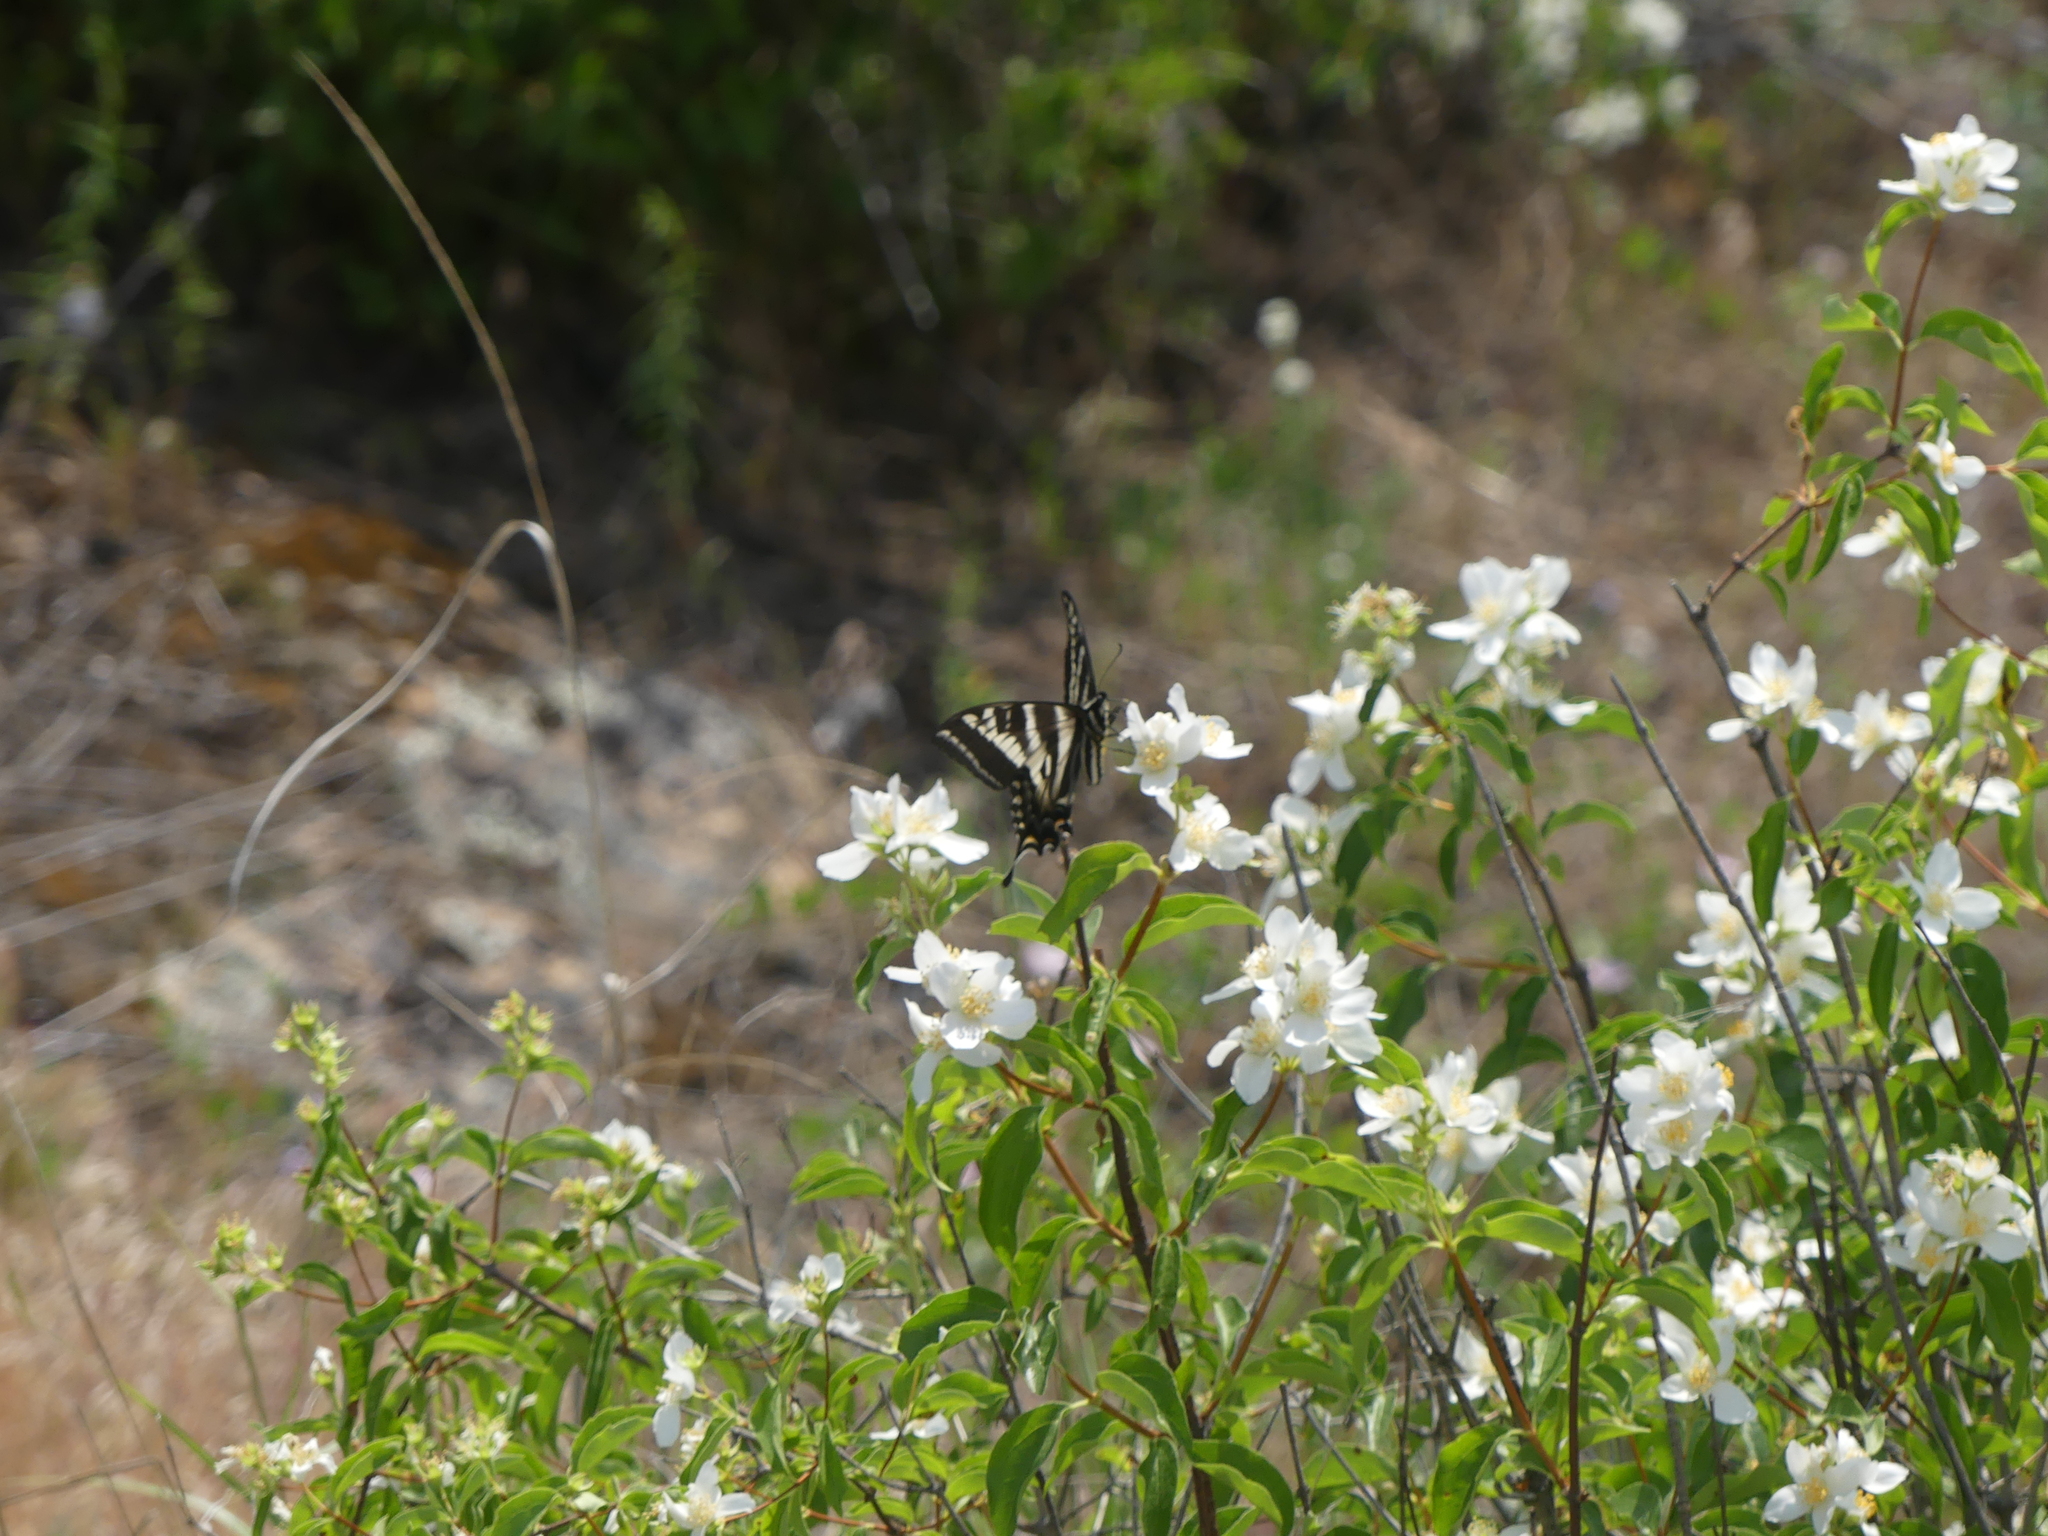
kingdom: Animalia
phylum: Arthropoda
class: Insecta
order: Lepidoptera
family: Papilionidae
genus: Papilio
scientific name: Papilio eurymedon
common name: Pale tiger swallowtail
